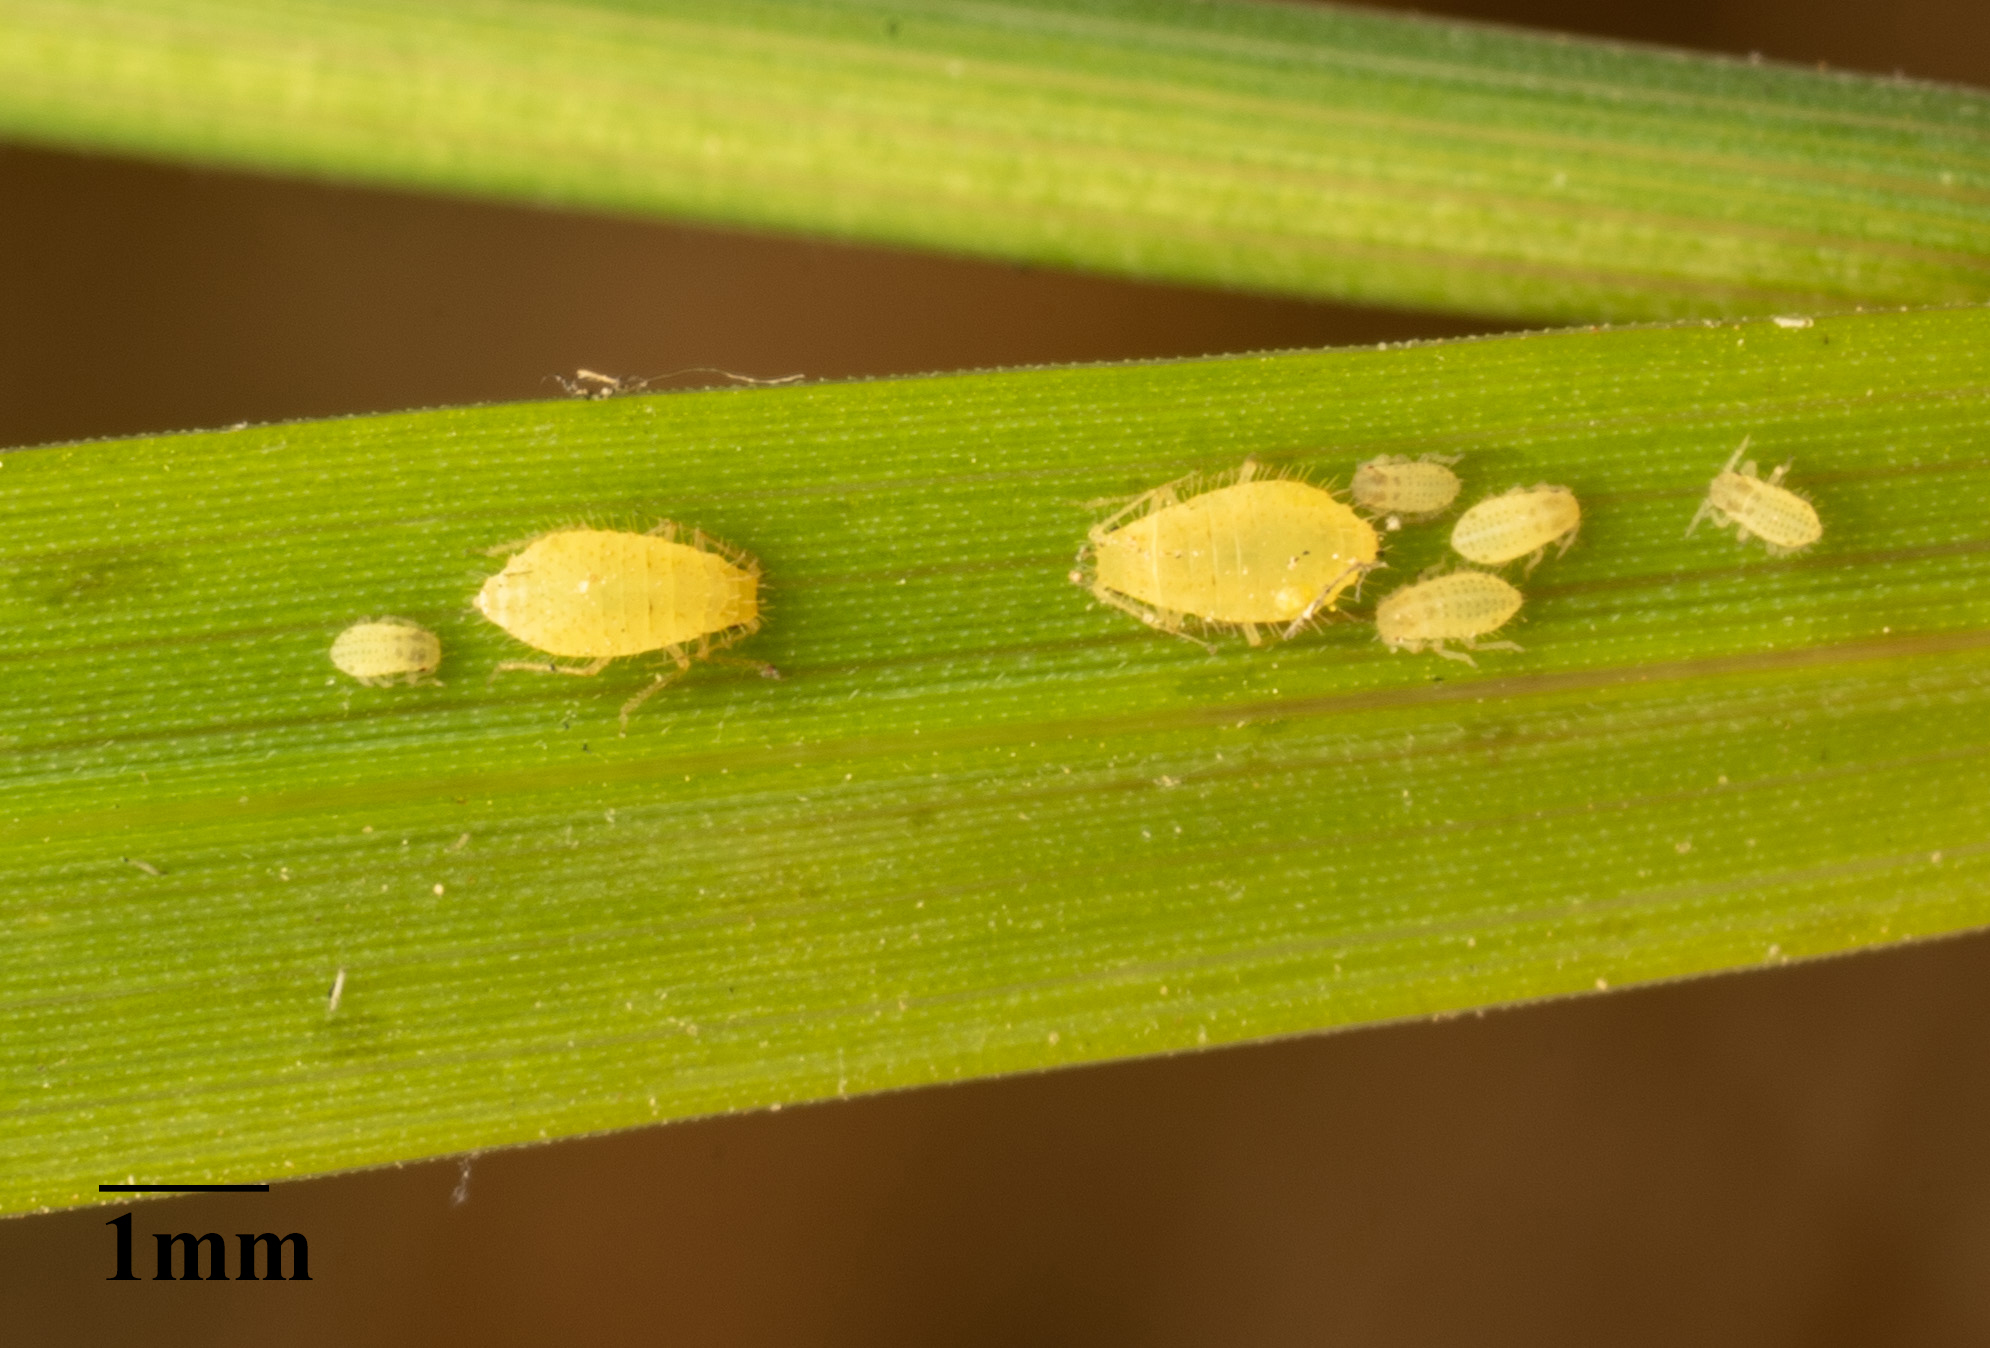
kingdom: Animalia
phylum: Arthropoda
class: Insecta
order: Hemiptera
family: Aphididae
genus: Sipha
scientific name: Sipha flava
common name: Yellow sugarcane aphid
